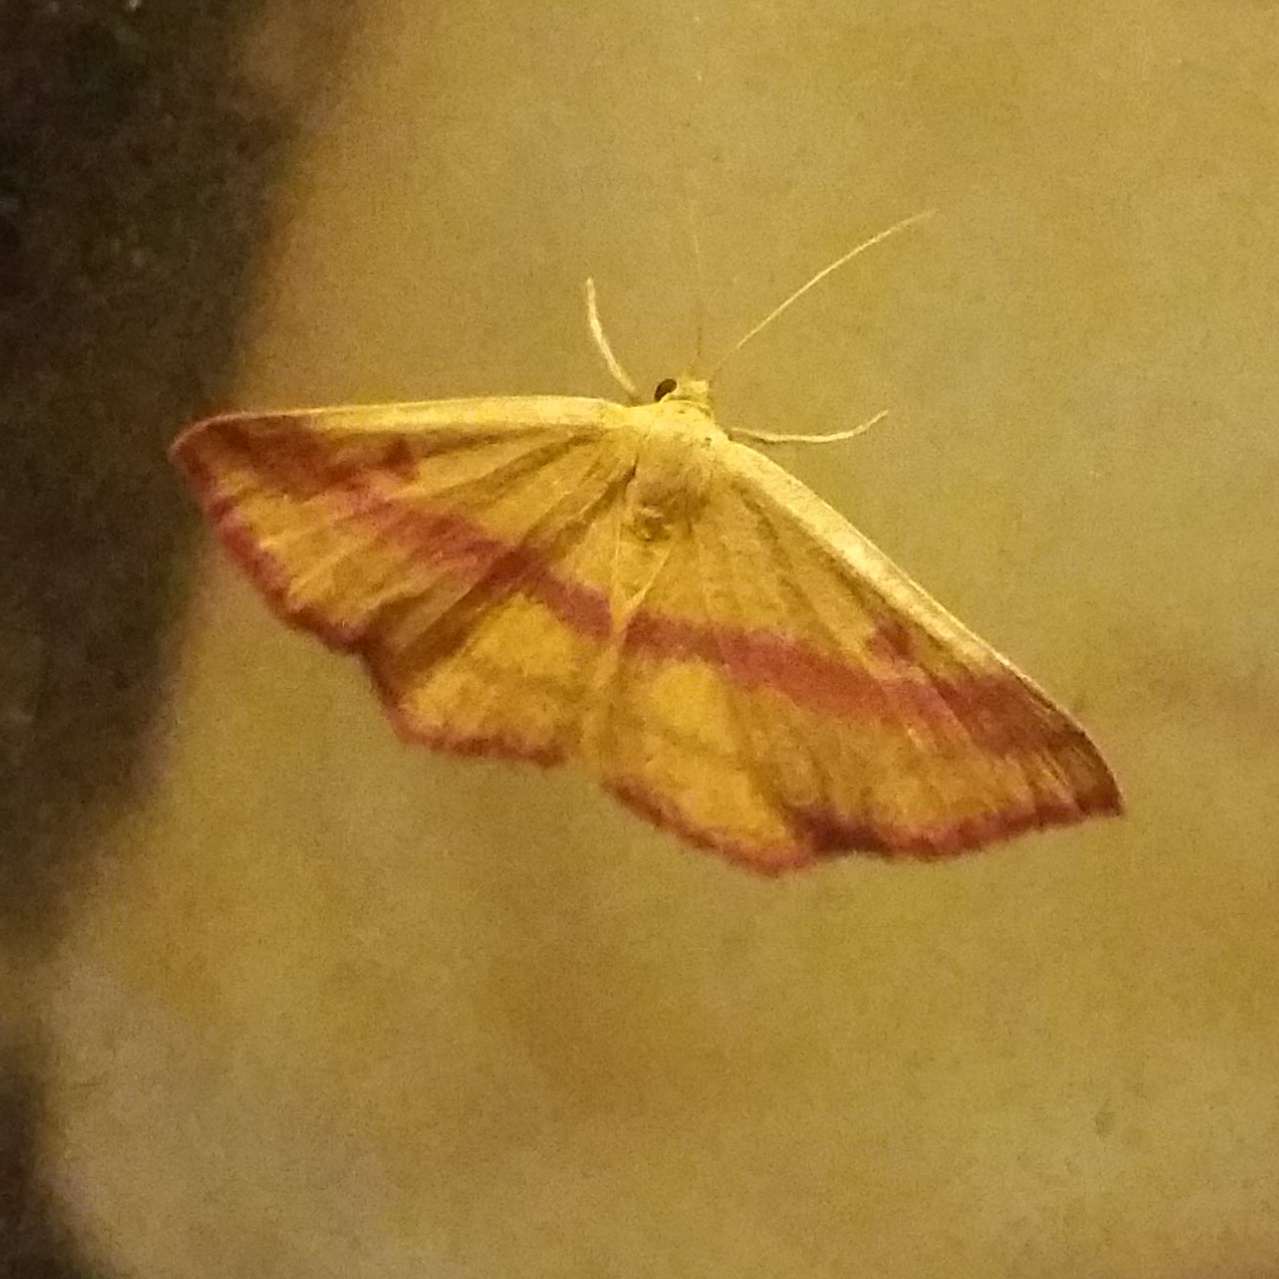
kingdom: Animalia
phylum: Arthropoda
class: Insecta
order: Lepidoptera
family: Geometridae
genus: Haematopis
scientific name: Haematopis grataria
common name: Chickweed geometer
